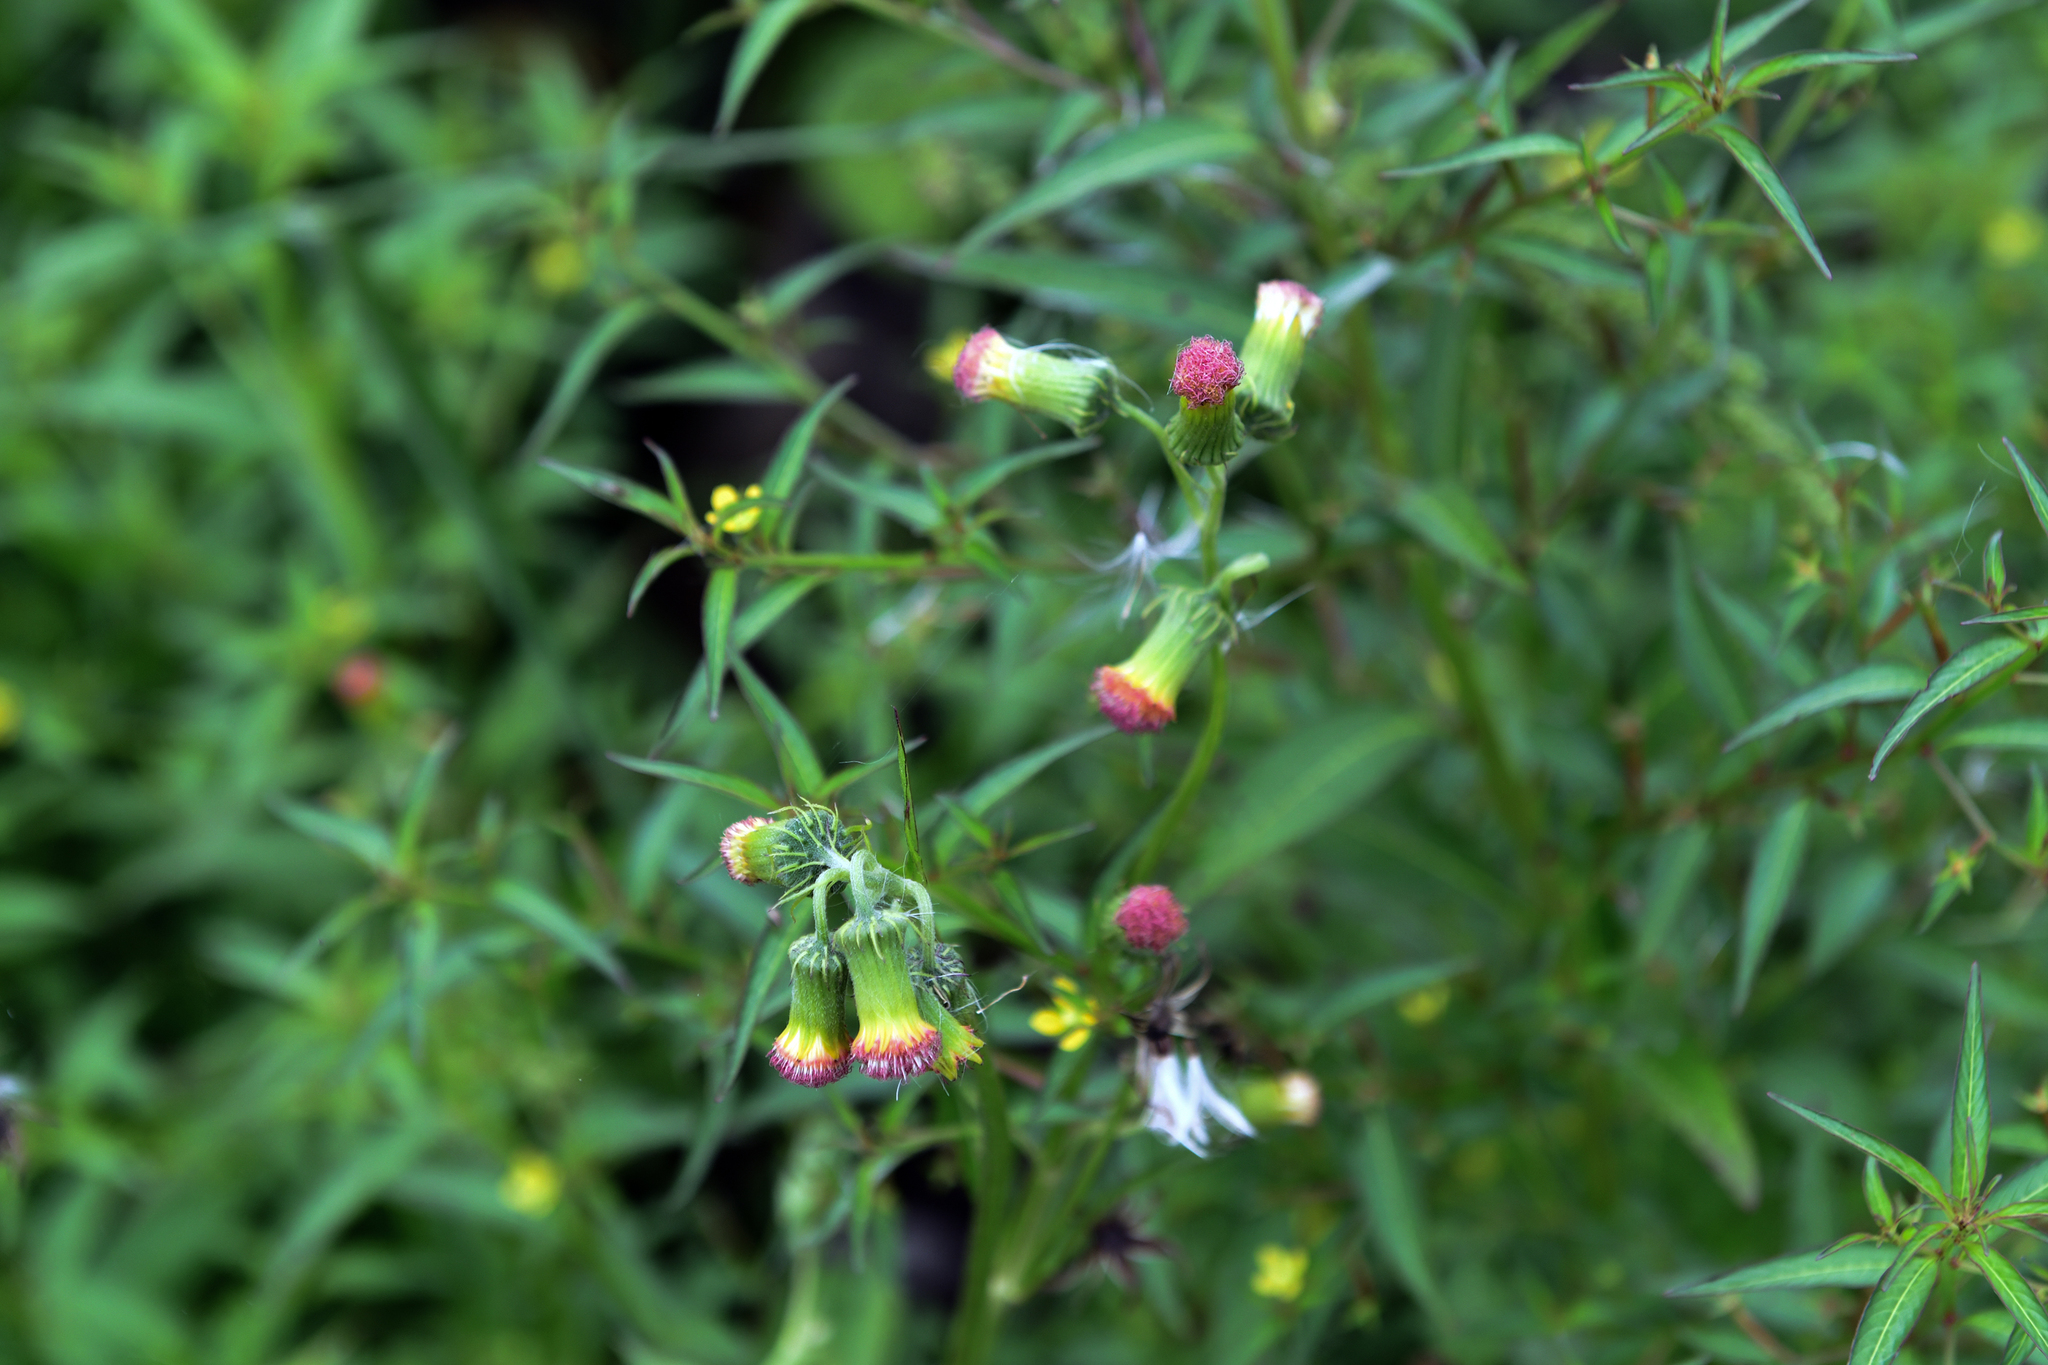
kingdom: Plantae
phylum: Tracheophyta
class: Magnoliopsida
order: Asterales
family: Asteraceae
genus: Crassocephalum
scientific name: Crassocephalum crepidioides
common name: Redflower ragleaf
